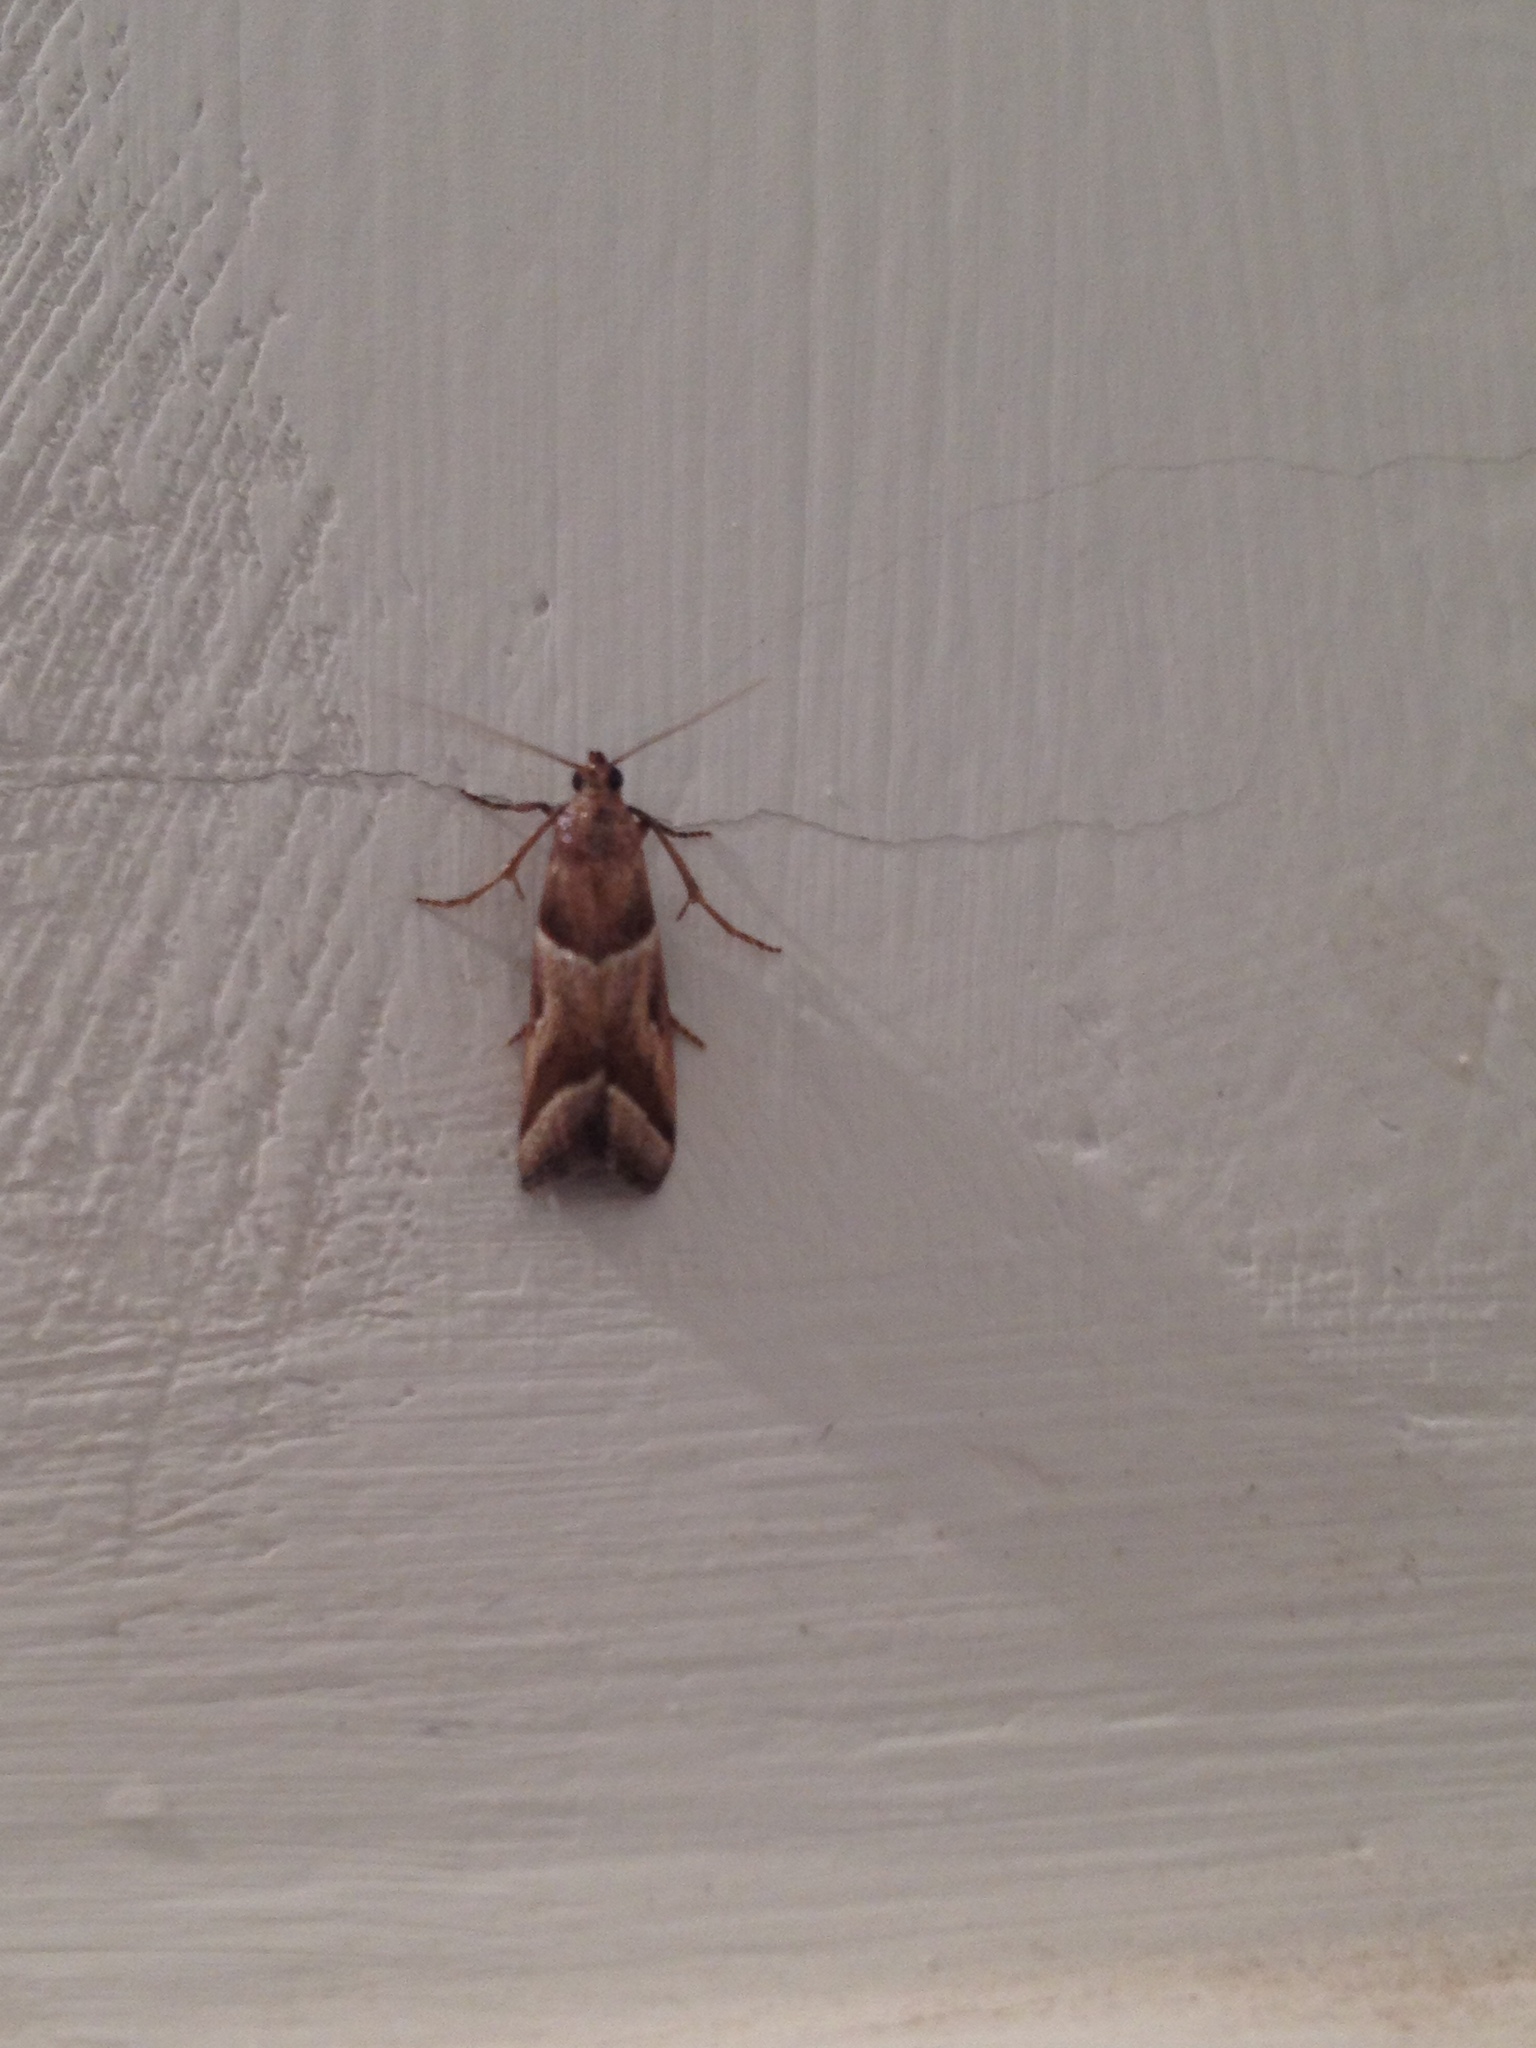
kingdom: Animalia
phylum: Arthropoda
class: Insecta
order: Lepidoptera
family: Pyralidae
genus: Nyctegretis
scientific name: Nyctegretis lineana
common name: Agate knot-horn
